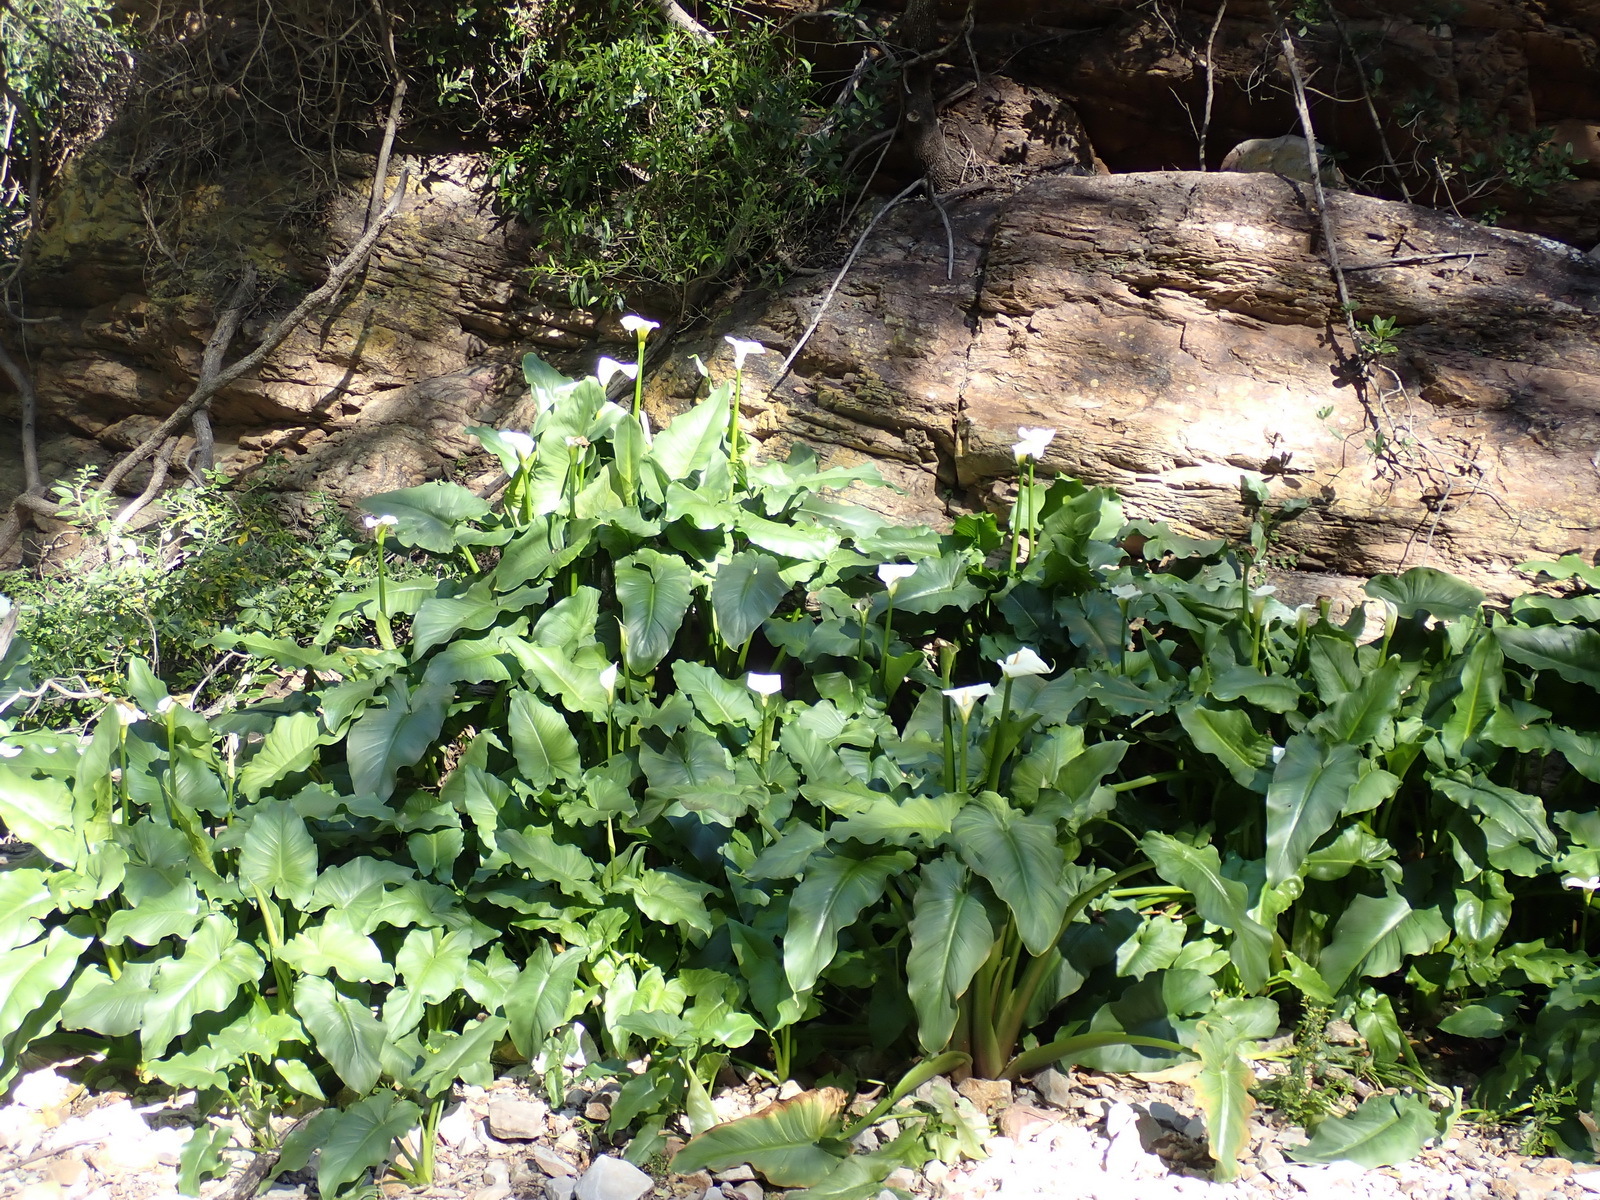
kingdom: Plantae
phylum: Tracheophyta
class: Liliopsida
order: Alismatales
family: Araceae
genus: Zantedeschia
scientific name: Zantedeschia aethiopica
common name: Altar-lily
